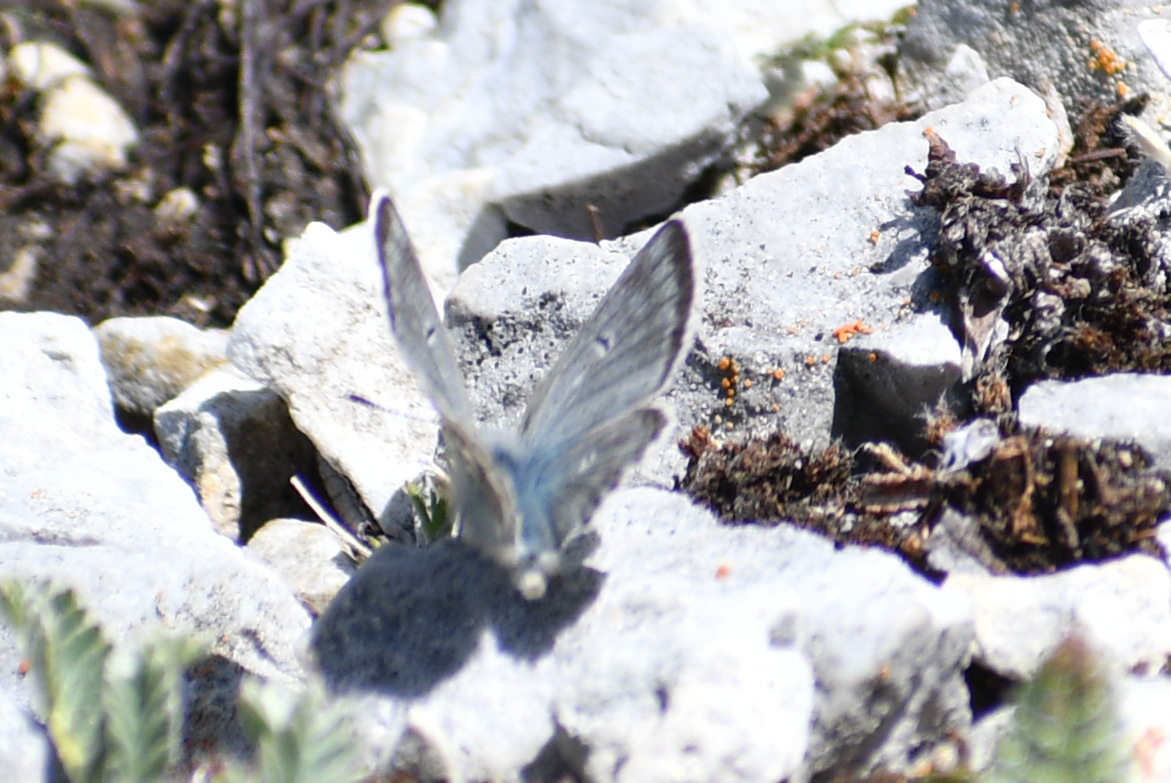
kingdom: Animalia
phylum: Arthropoda
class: Insecta
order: Lepidoptera
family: Lycaenidae
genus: Agriades
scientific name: Agriades glandon
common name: Glandon blue
